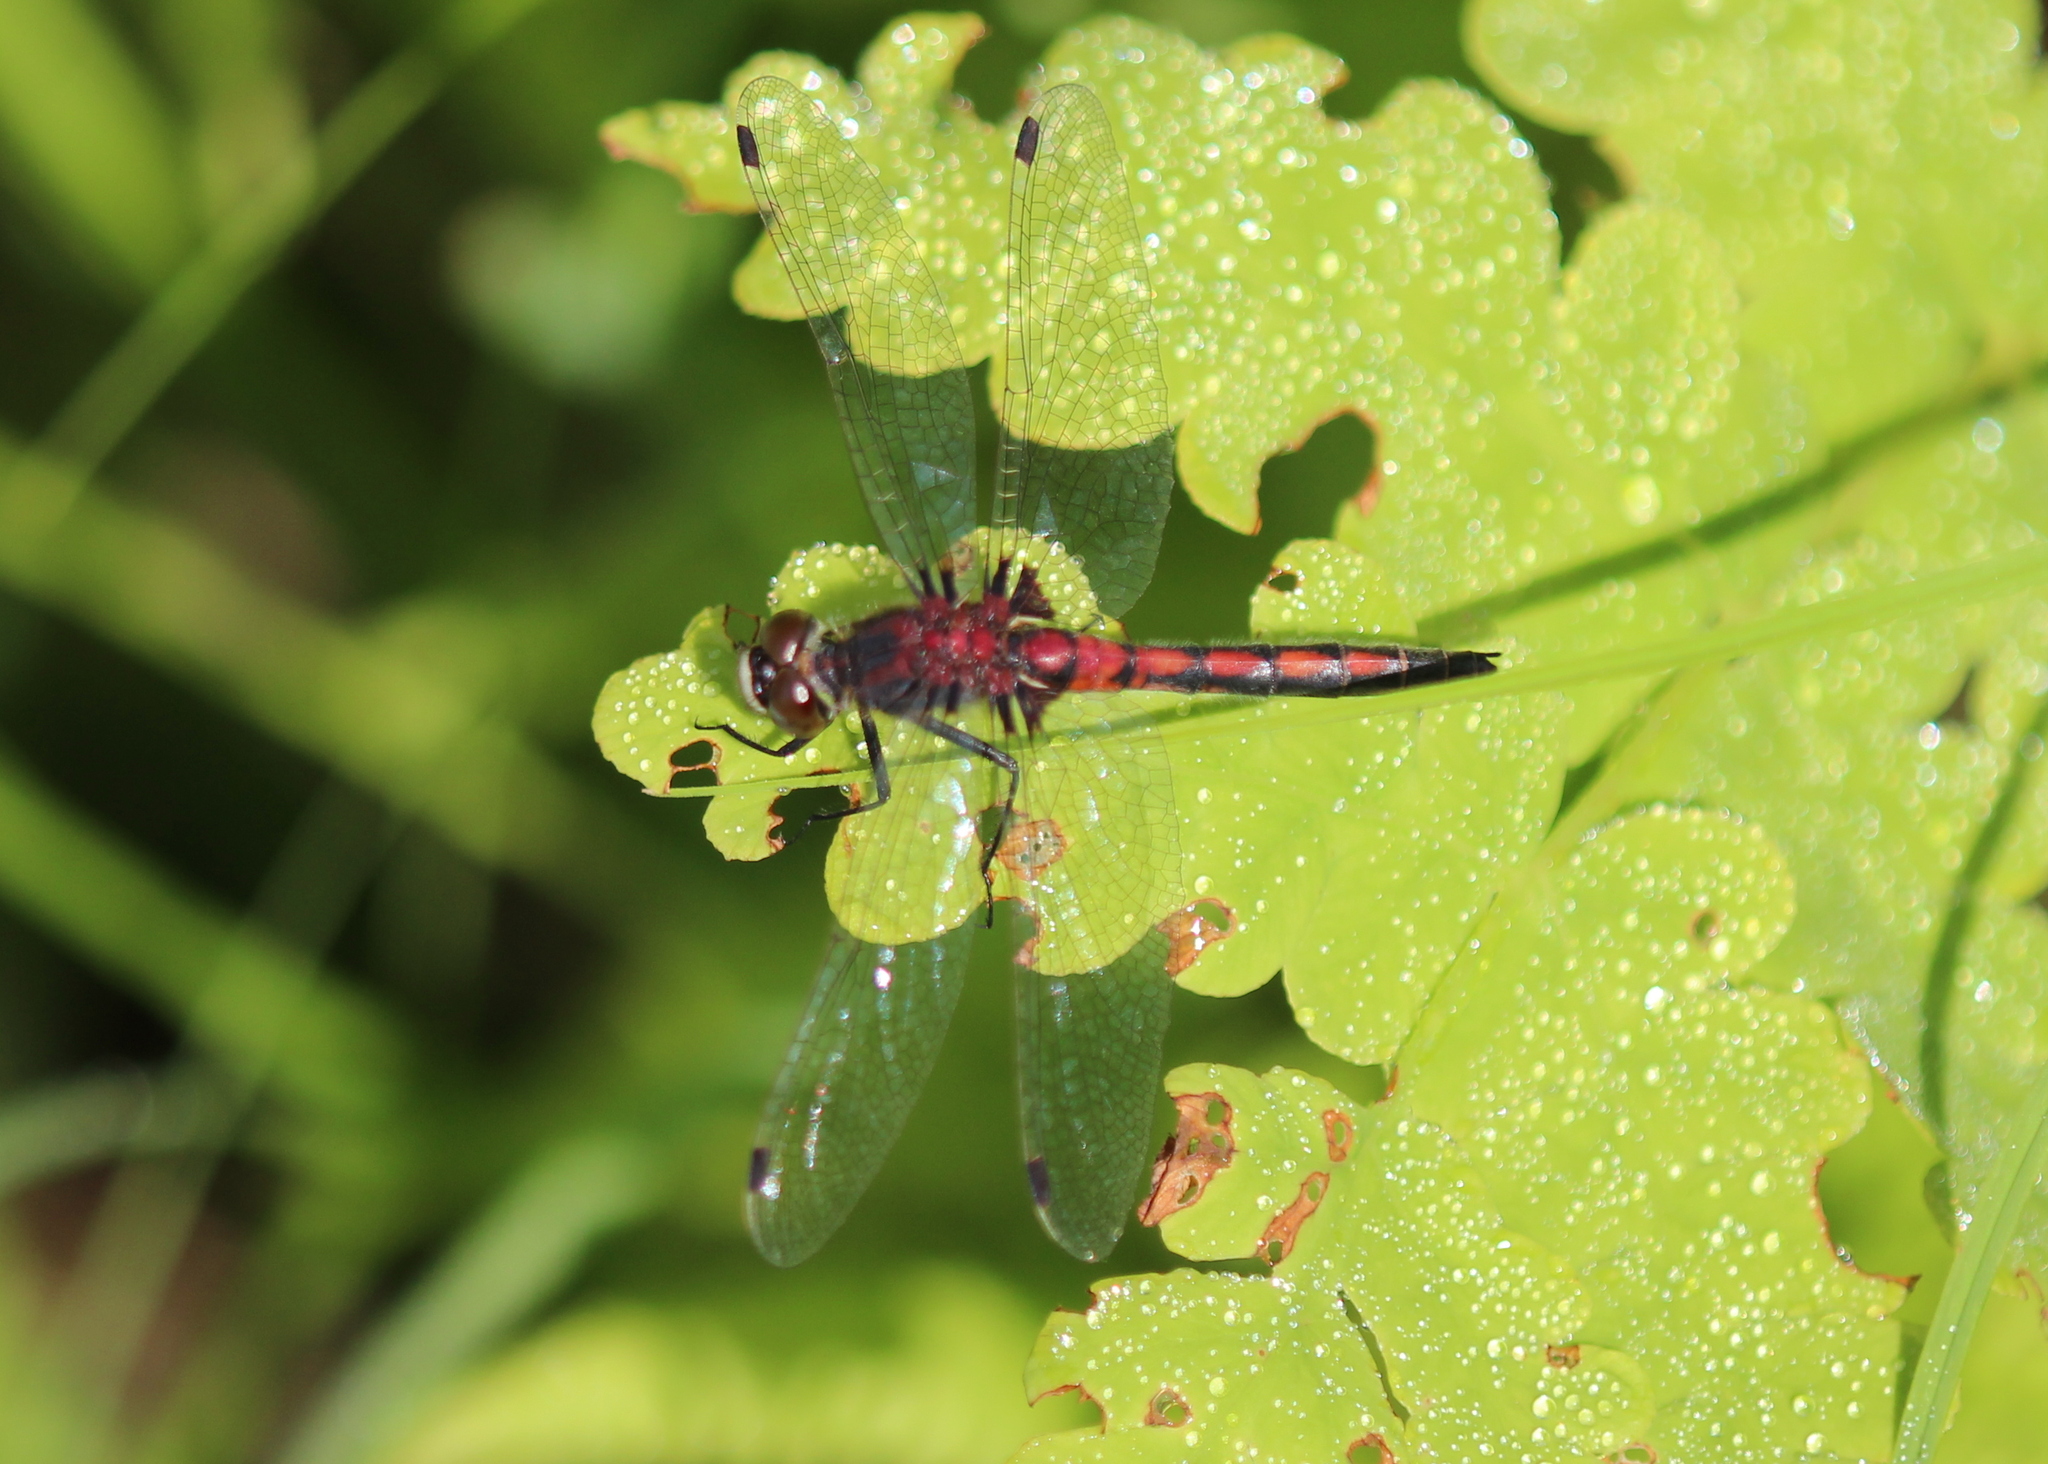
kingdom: Animalia
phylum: Arthropoda
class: Insecta
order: Odonata
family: Libellulidae
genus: Leucorrhinia
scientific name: Leucorrhinia hudsonica
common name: Hudsonian whiteface
